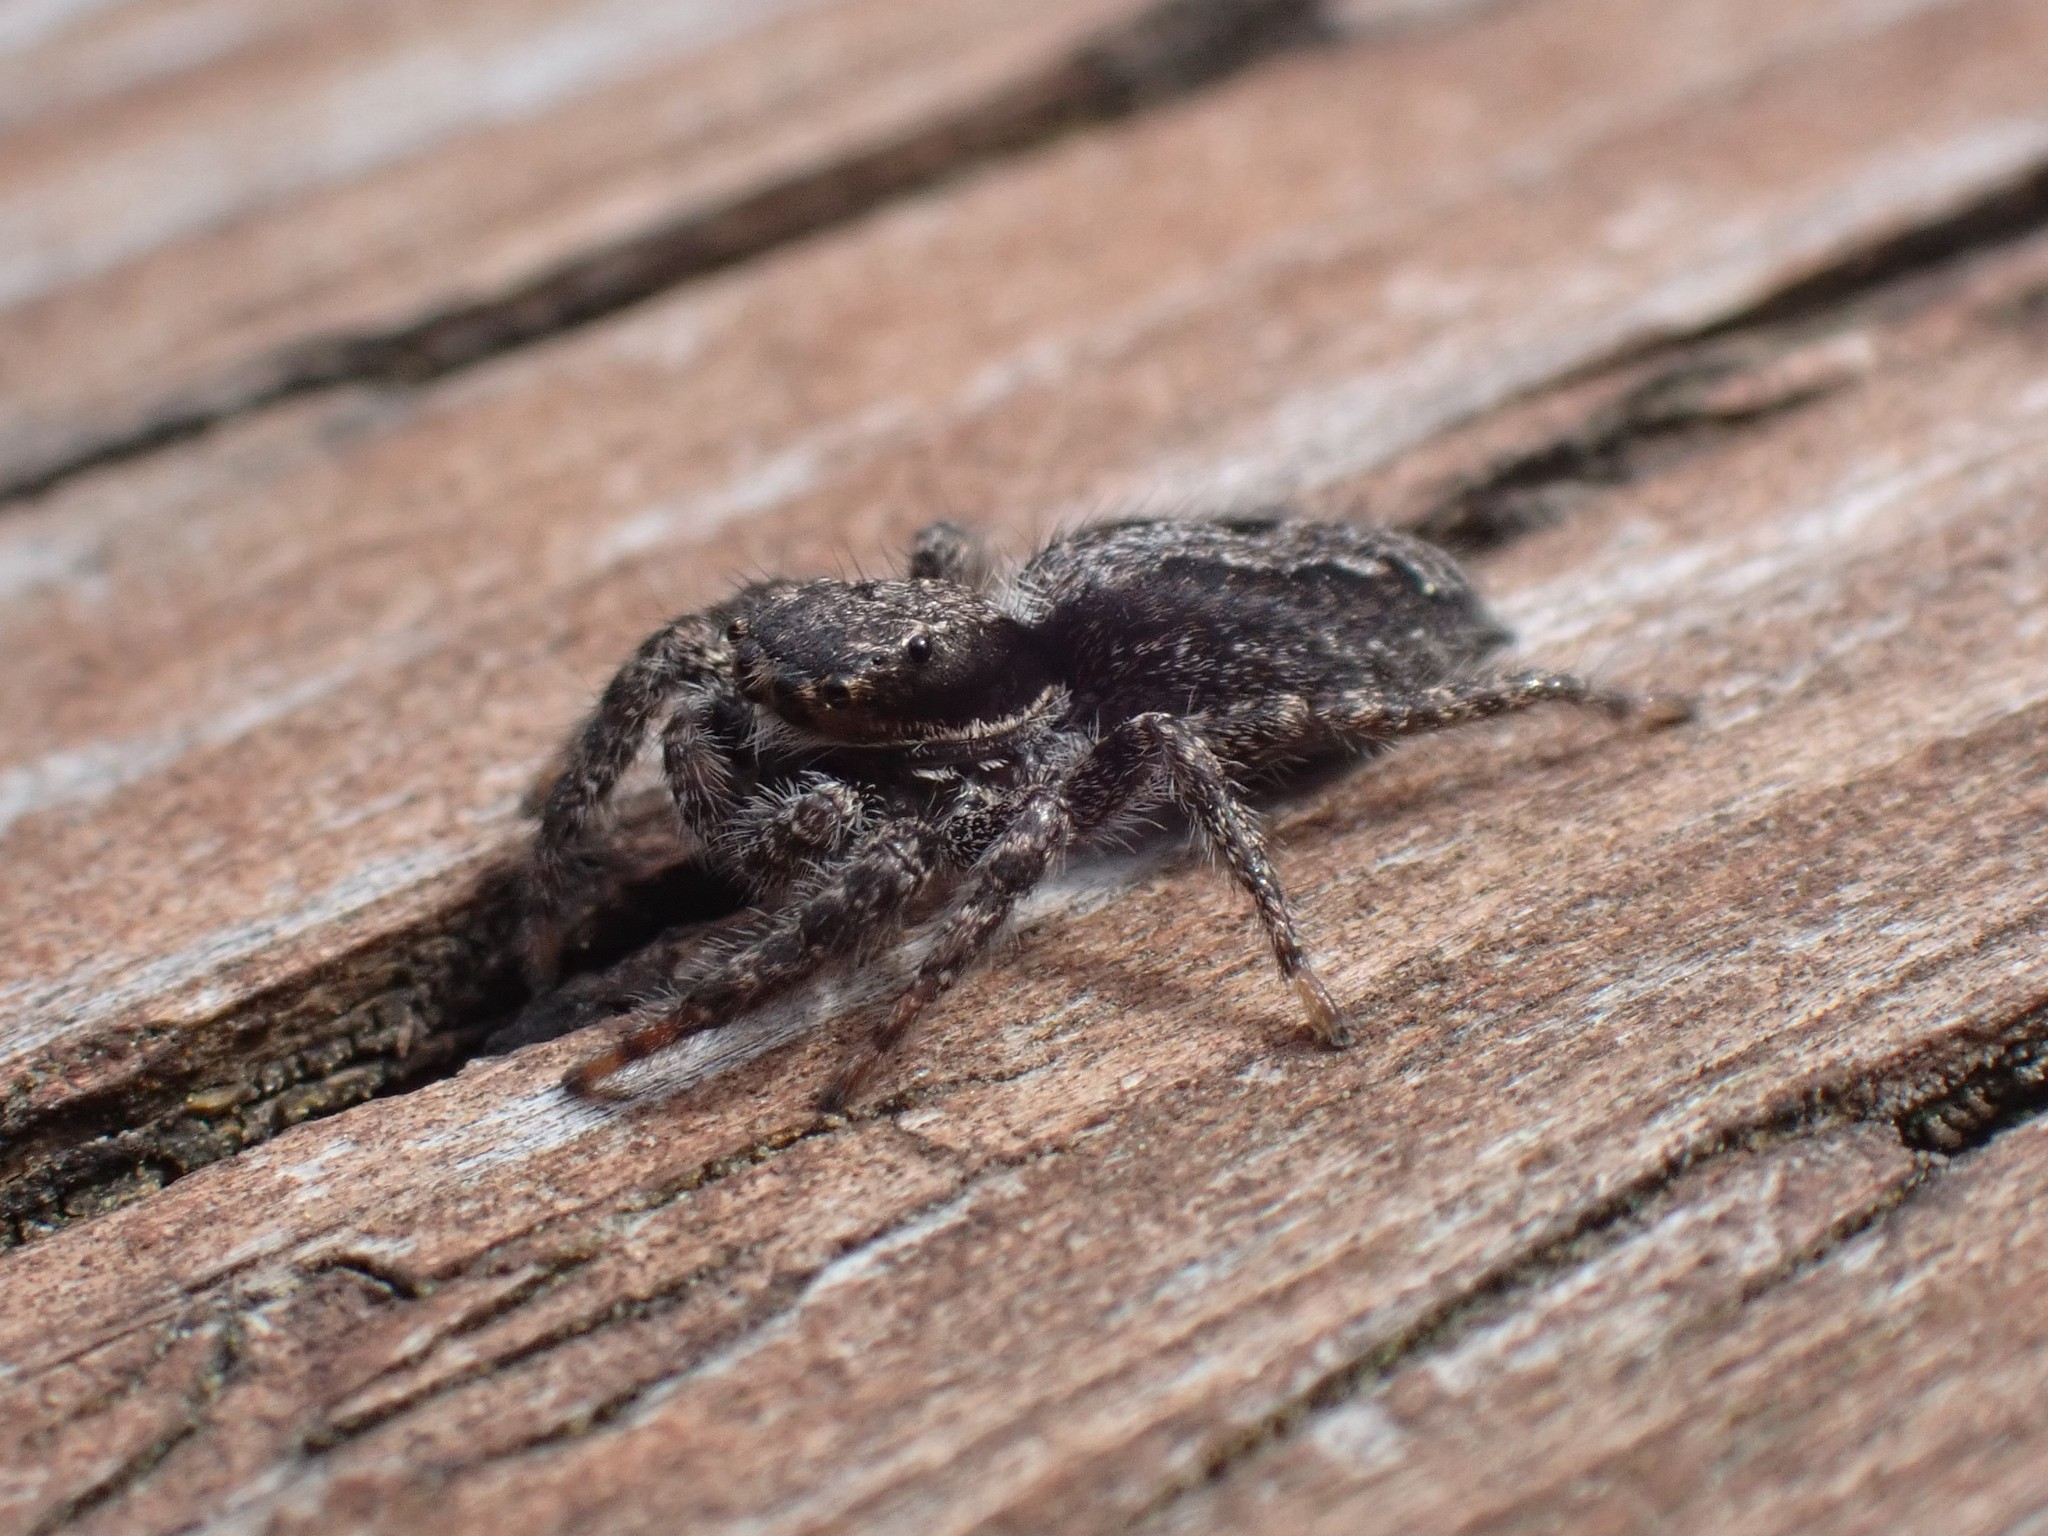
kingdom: Animalia
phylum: Arthropoda
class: Arachnida
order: Araneae
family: Salticidae
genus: Platycryptus
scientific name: Platycryptus californicus
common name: Jumping spiders
